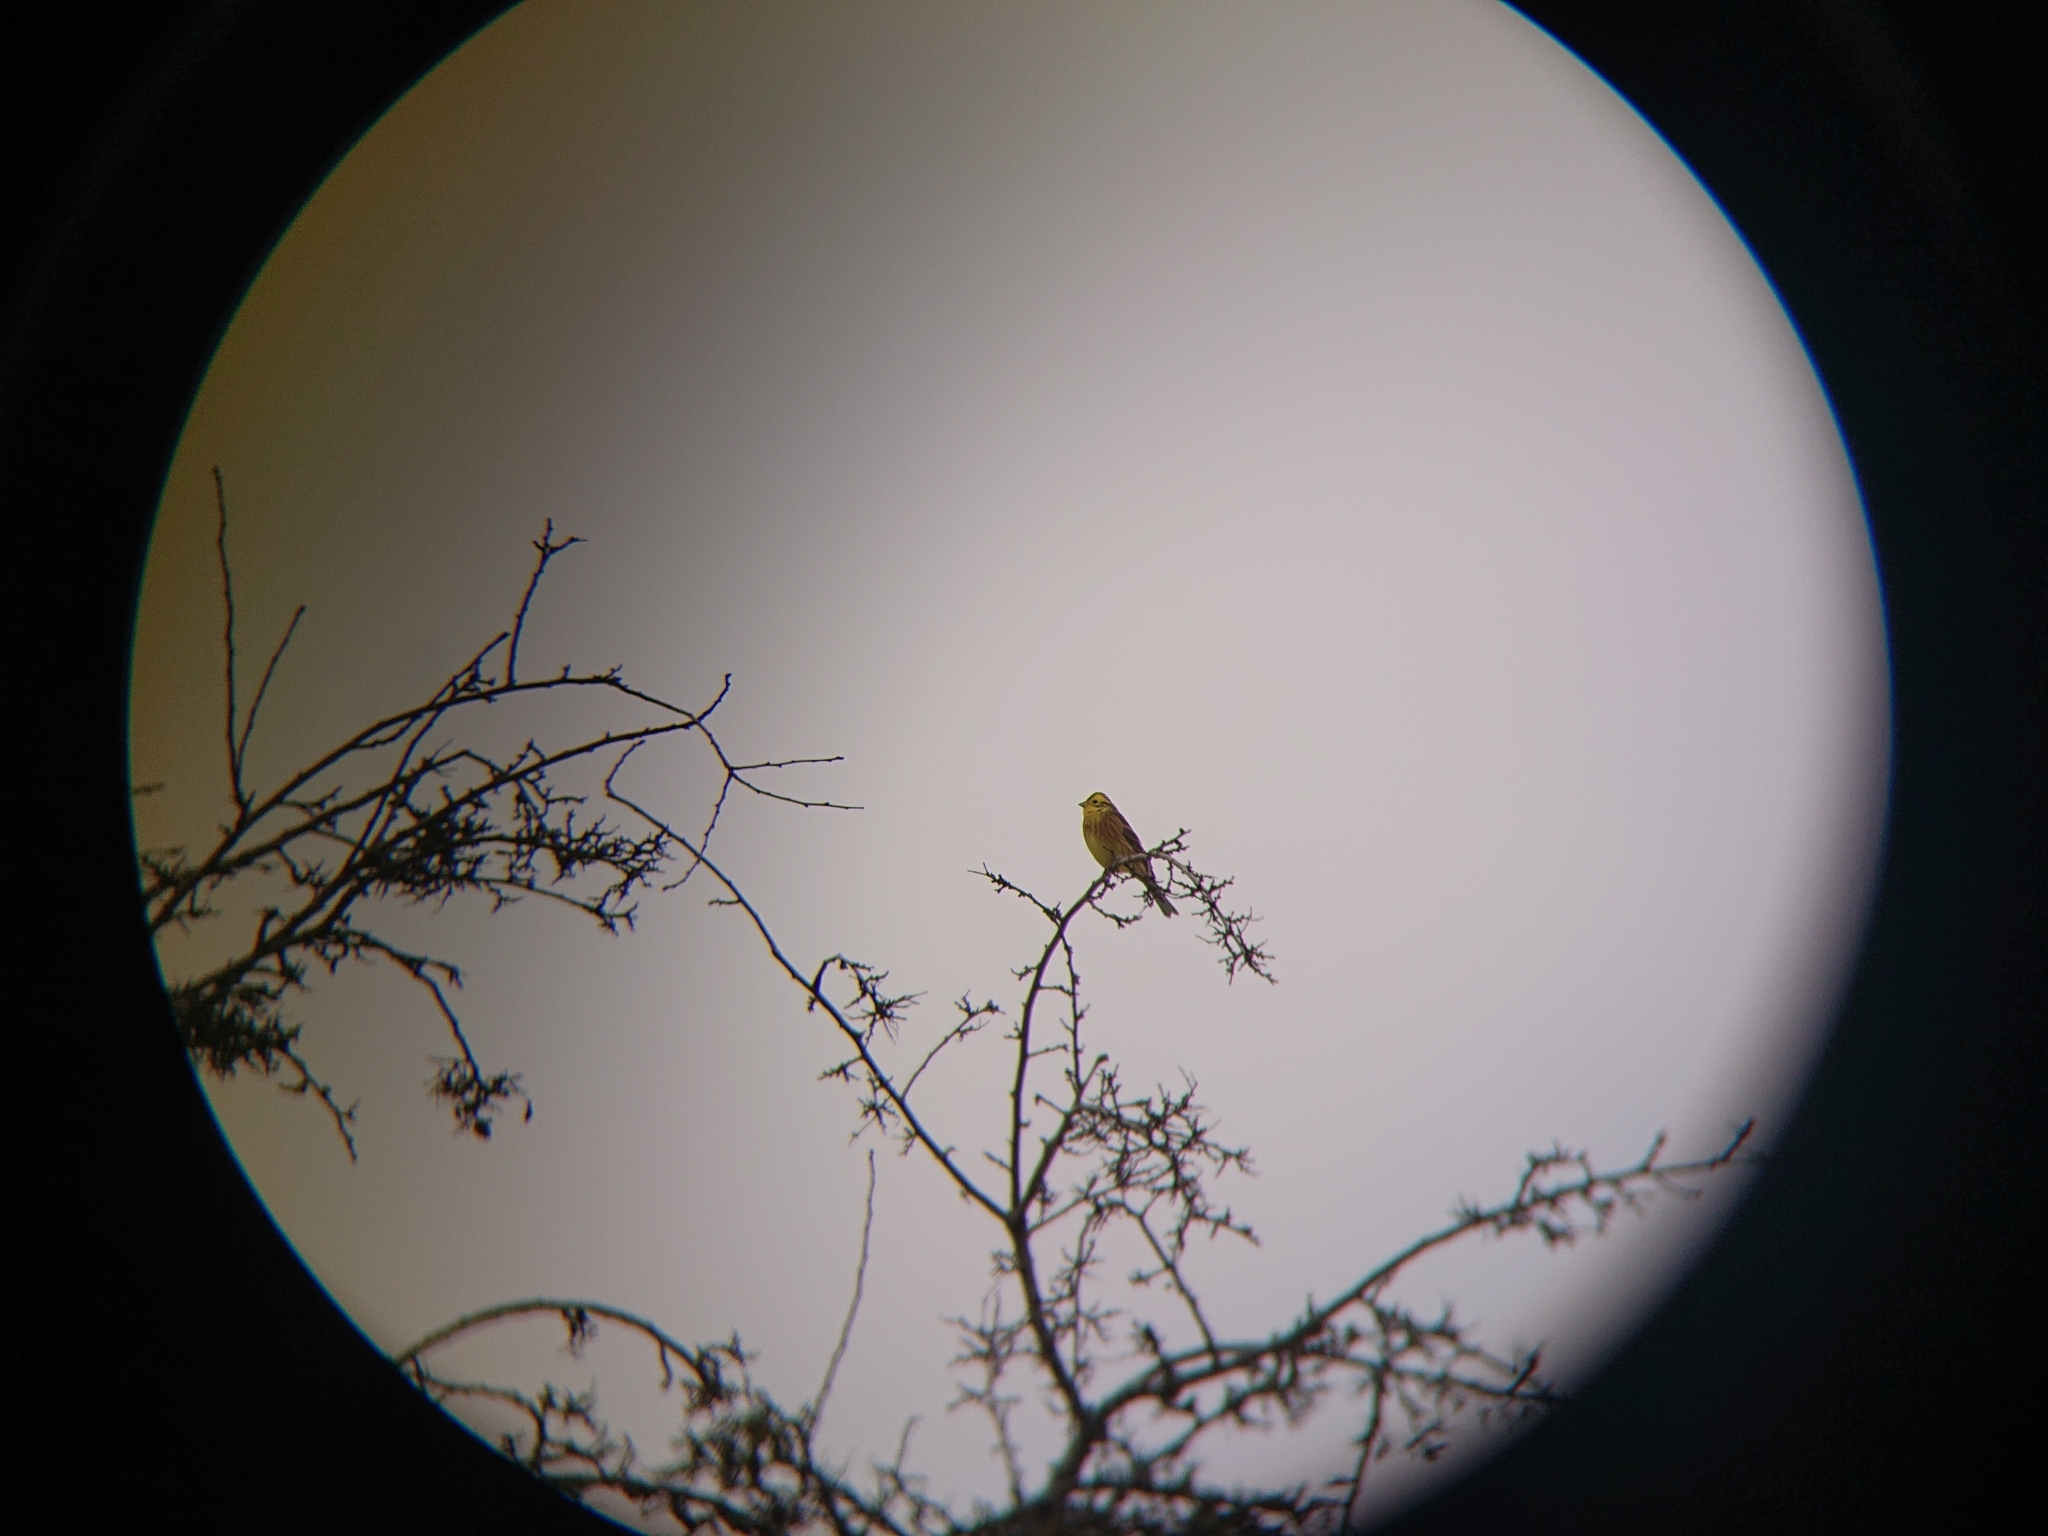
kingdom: Animalia
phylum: Chordata
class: Aves
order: Passeriformes
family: Emberizidae
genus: Emberiza
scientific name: Emberiza citrinella
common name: Yellowhammer
